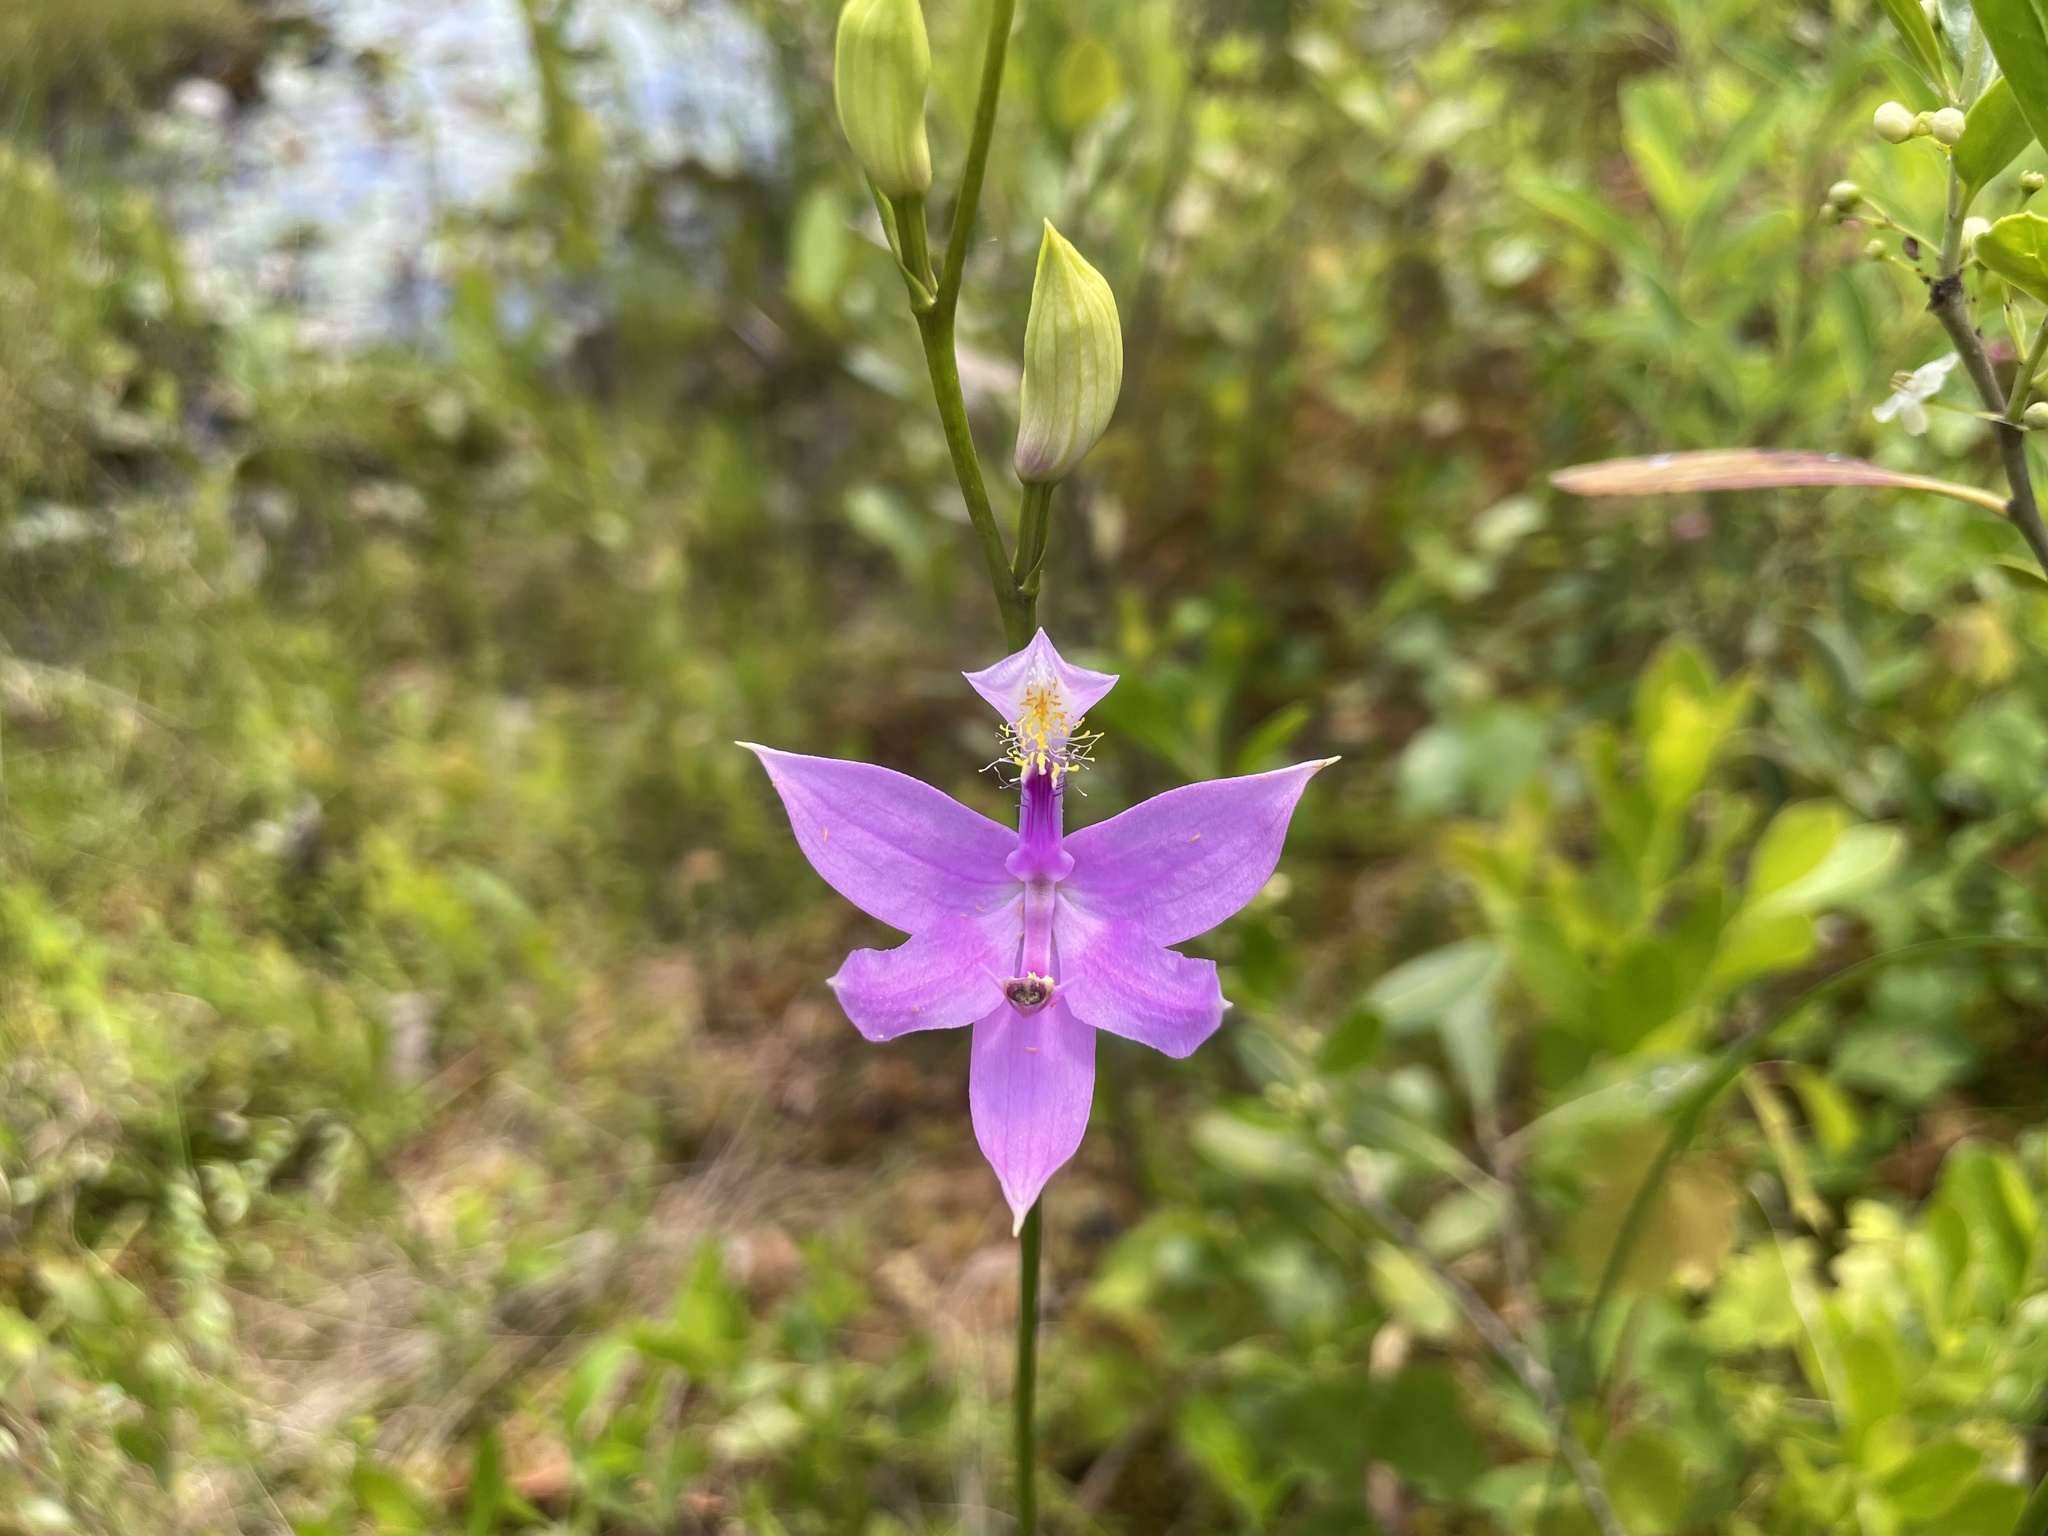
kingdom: Plantae
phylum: Tracheophyta
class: Liliopsida
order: Asparagales
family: Orchidaceae
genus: Calopogon
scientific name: Calopogon tuberosus
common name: Grass-pink
